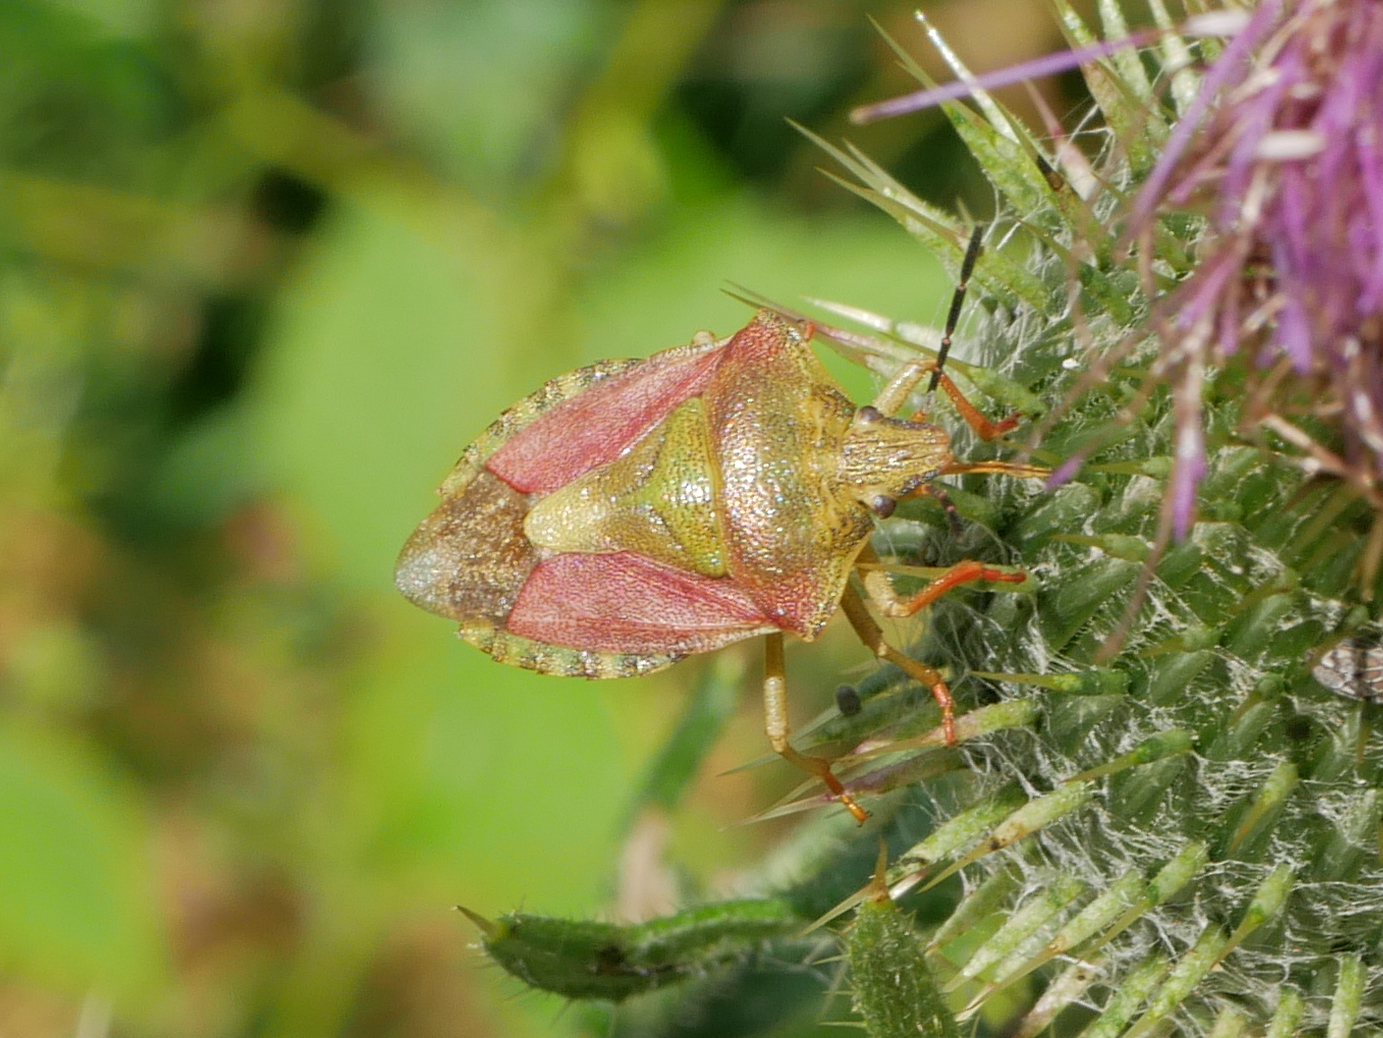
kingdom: Animalia
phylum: Arthropoda
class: Insecta
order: Hemiptera
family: Pentatomidae
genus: Carpocoris
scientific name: Carpocoris purpureipennis
